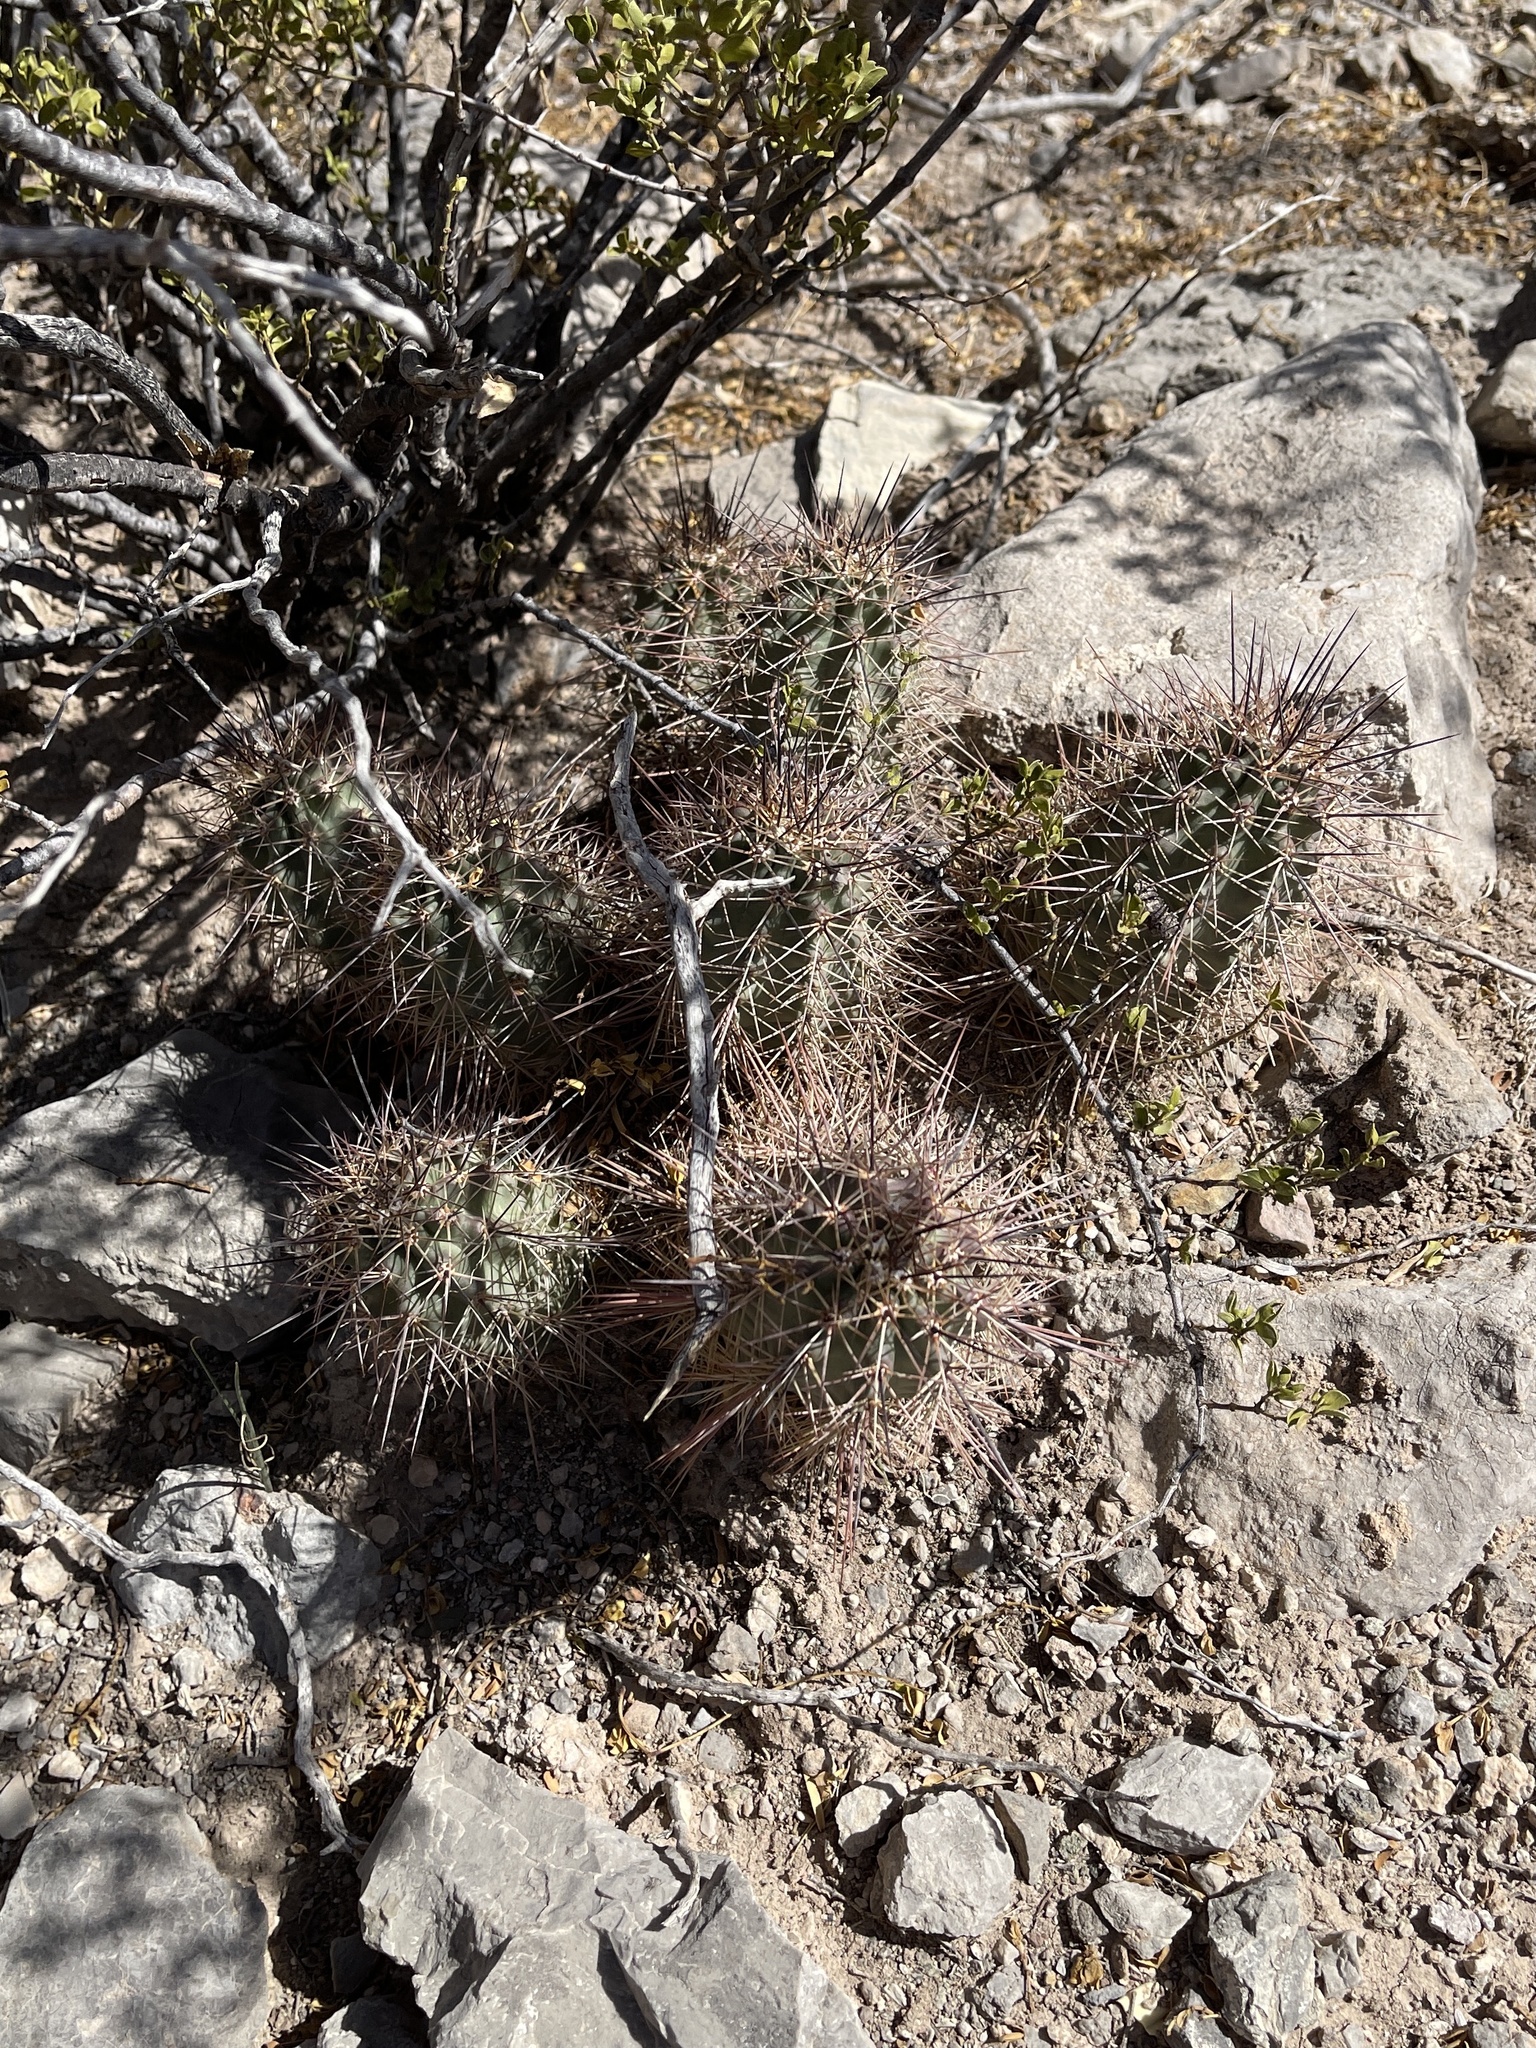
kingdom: Plantae
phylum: Tracheophyta
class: Magnoliopsida
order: Caryophyllales
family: Cactaceae
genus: Echinocereus
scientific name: Echinocereus coccineus
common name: Scarlet hedgehog cactus
